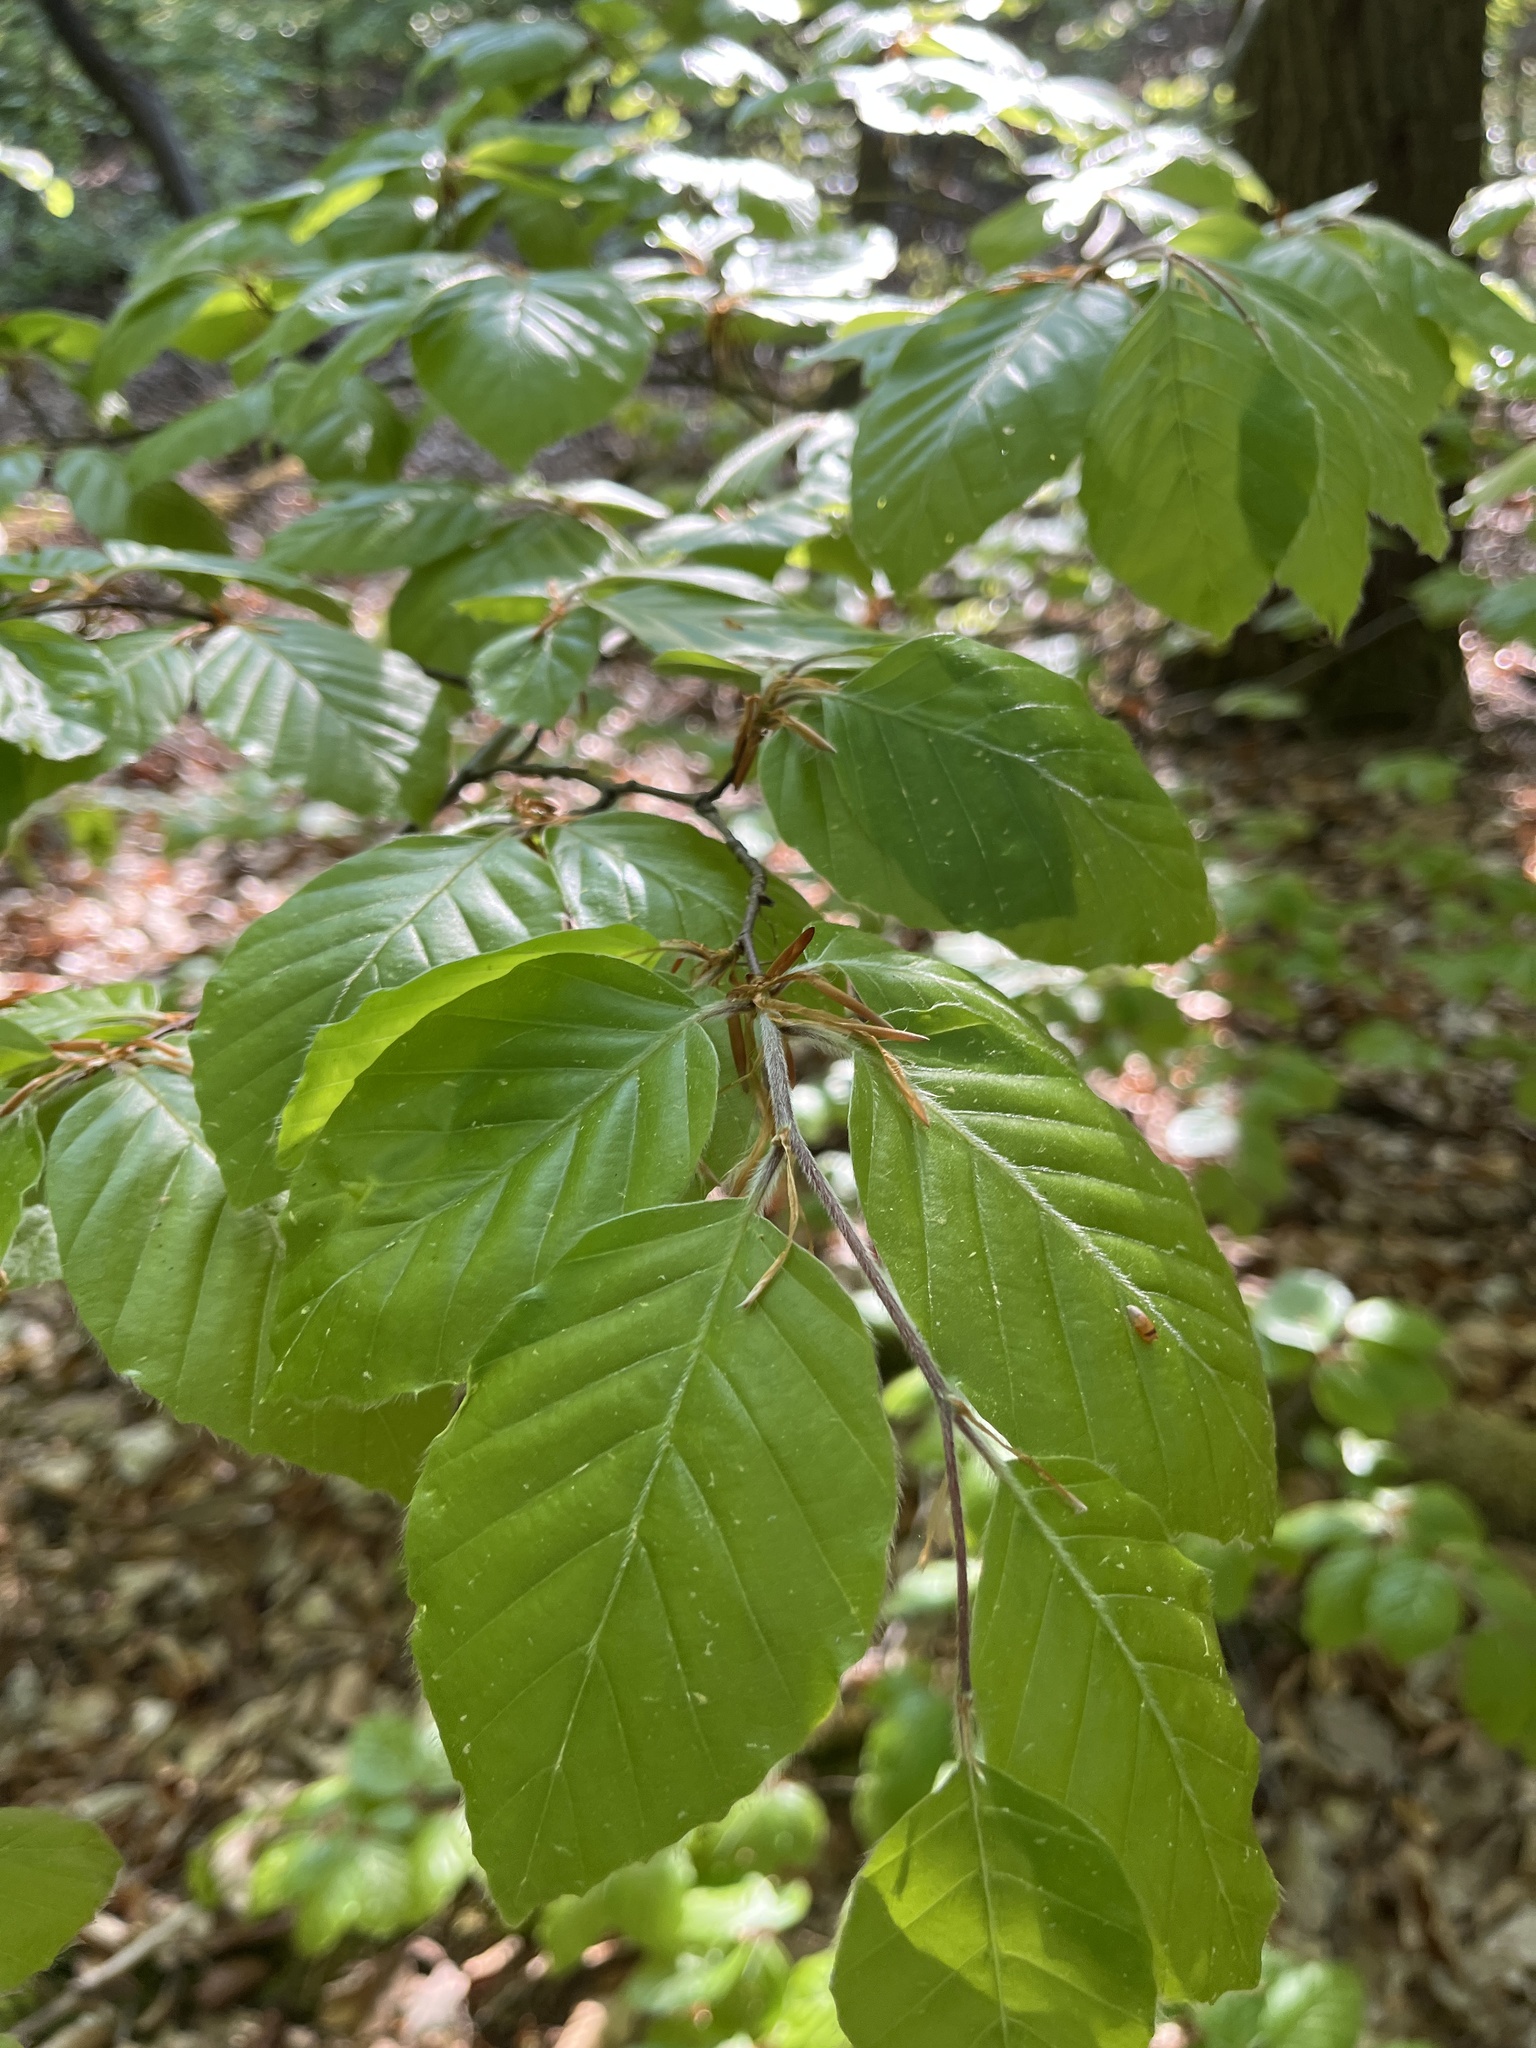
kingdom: Plantae
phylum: Tracheophyta
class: Magnoliopsida
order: Fagales
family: Fagaceae
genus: Fagus
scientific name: Fagus sylvatica
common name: Beech
